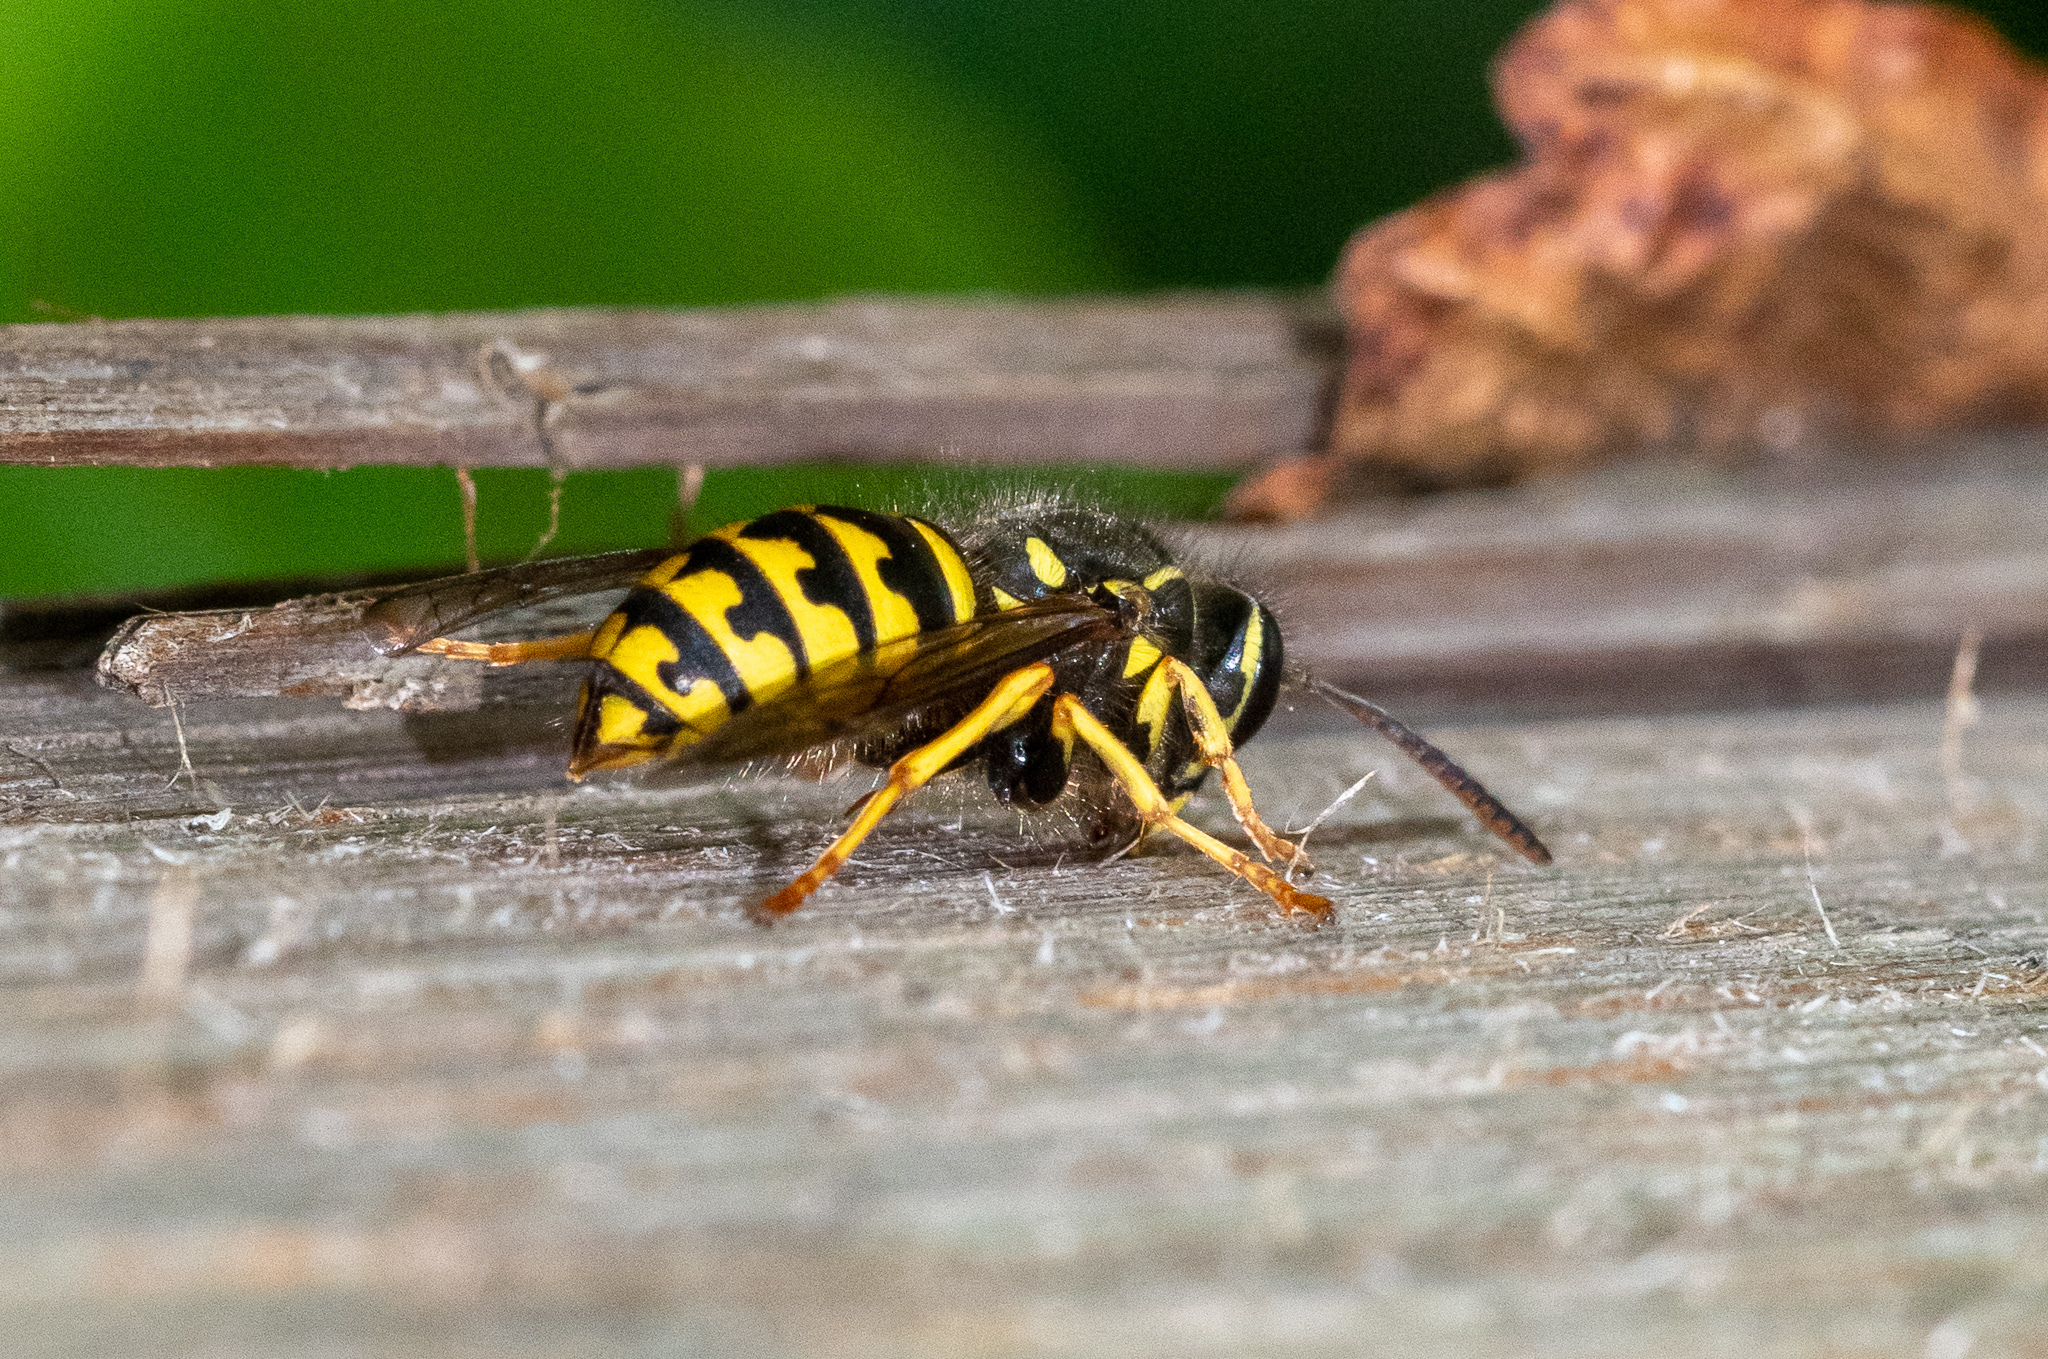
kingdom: Animalia
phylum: Arthropoda
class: Insecta
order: Hymenoptera
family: Vespidae
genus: Dolichovespula
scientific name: Dolichovespula arenaria
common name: Aerial yellowjacket
